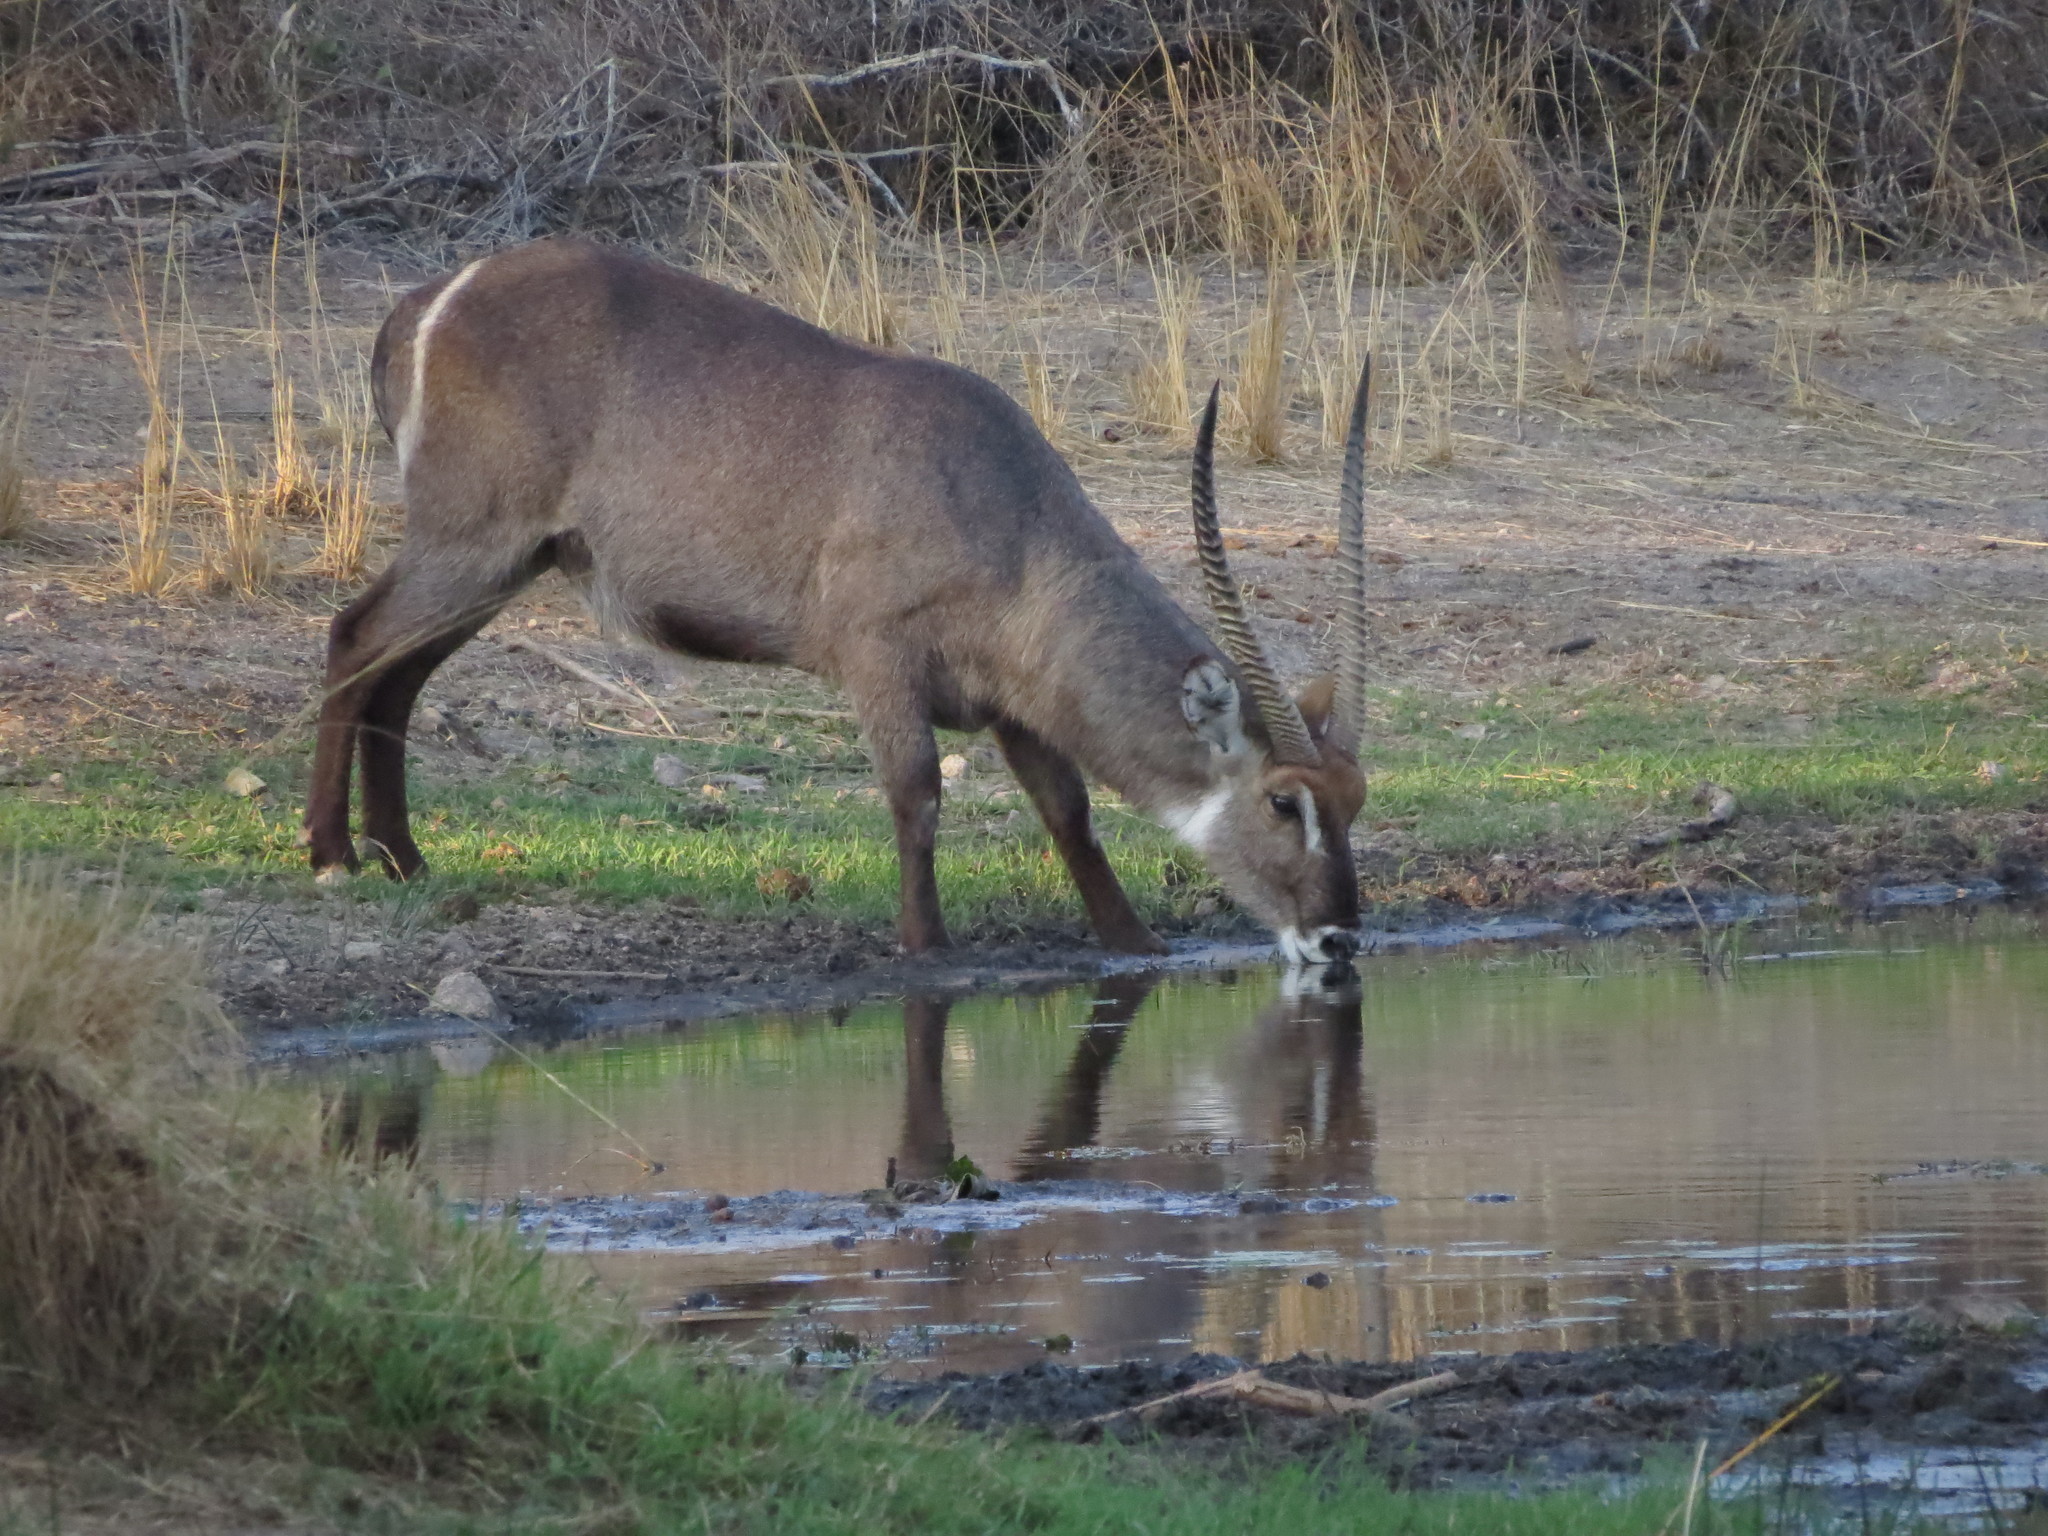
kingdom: Animalia
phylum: Chordata
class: Mammalia
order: Artiodactyla
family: Bovidae
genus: Kobus
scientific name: Kobus ellipsiprymnus
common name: Waterbuck
